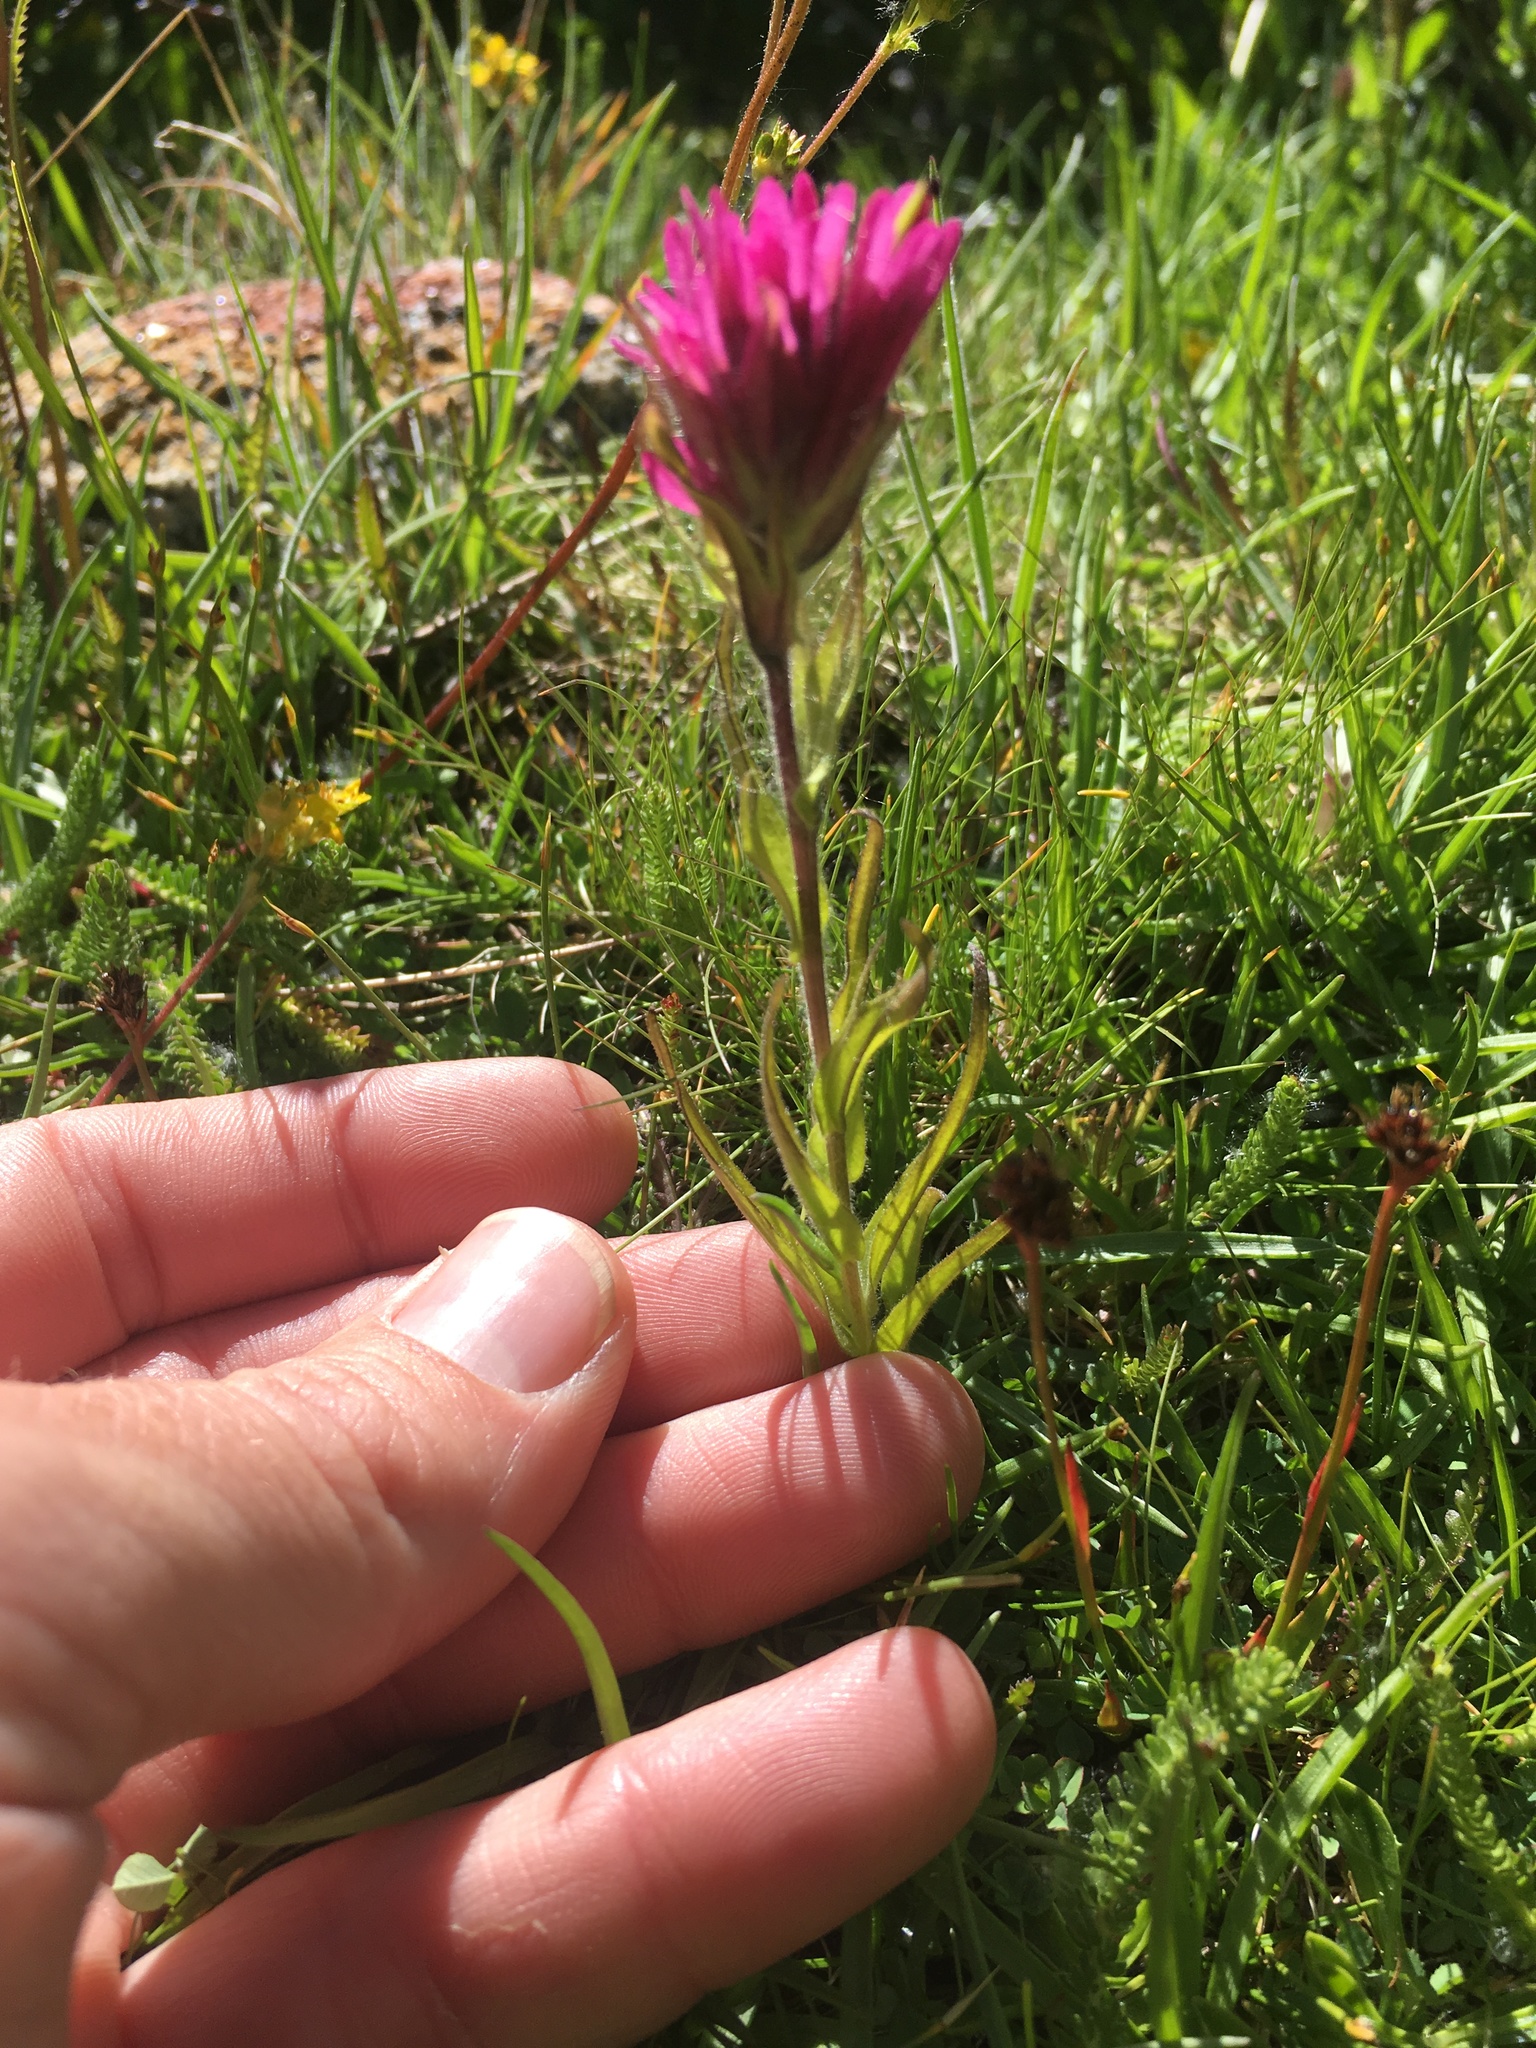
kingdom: Plantae
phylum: Tracheophyta
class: Magnoliopsida
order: Lamiales
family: Orobanchaceae
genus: Castilleja
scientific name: Castilleja lemmonii
